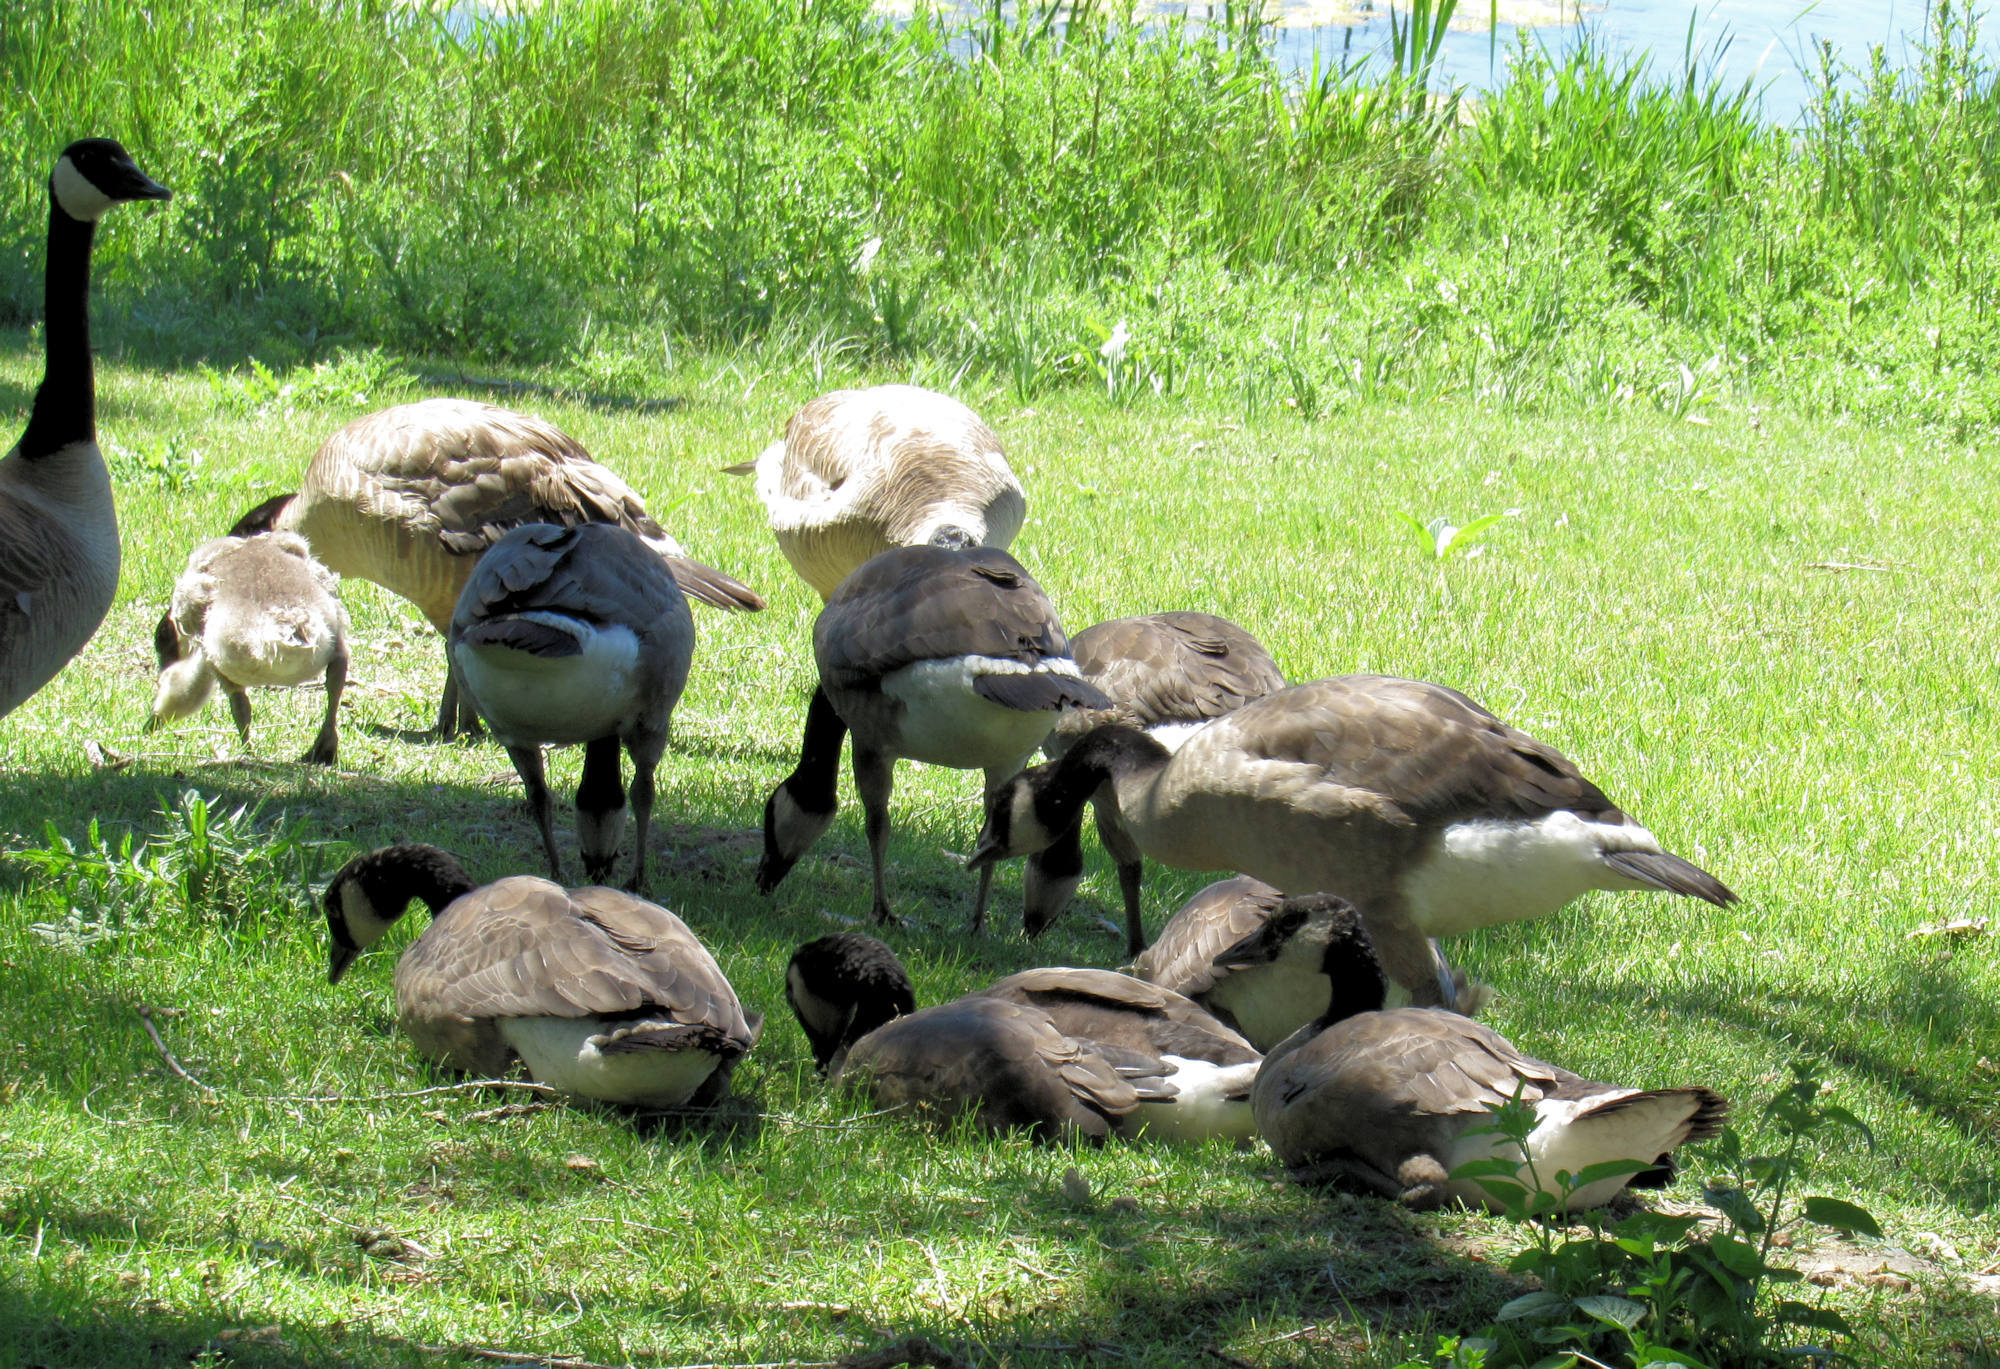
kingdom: Animalia
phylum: Chordata
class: Aves
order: Anseriformes
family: Anatidae
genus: Branta
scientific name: Branta canadensis
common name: Canada goose
